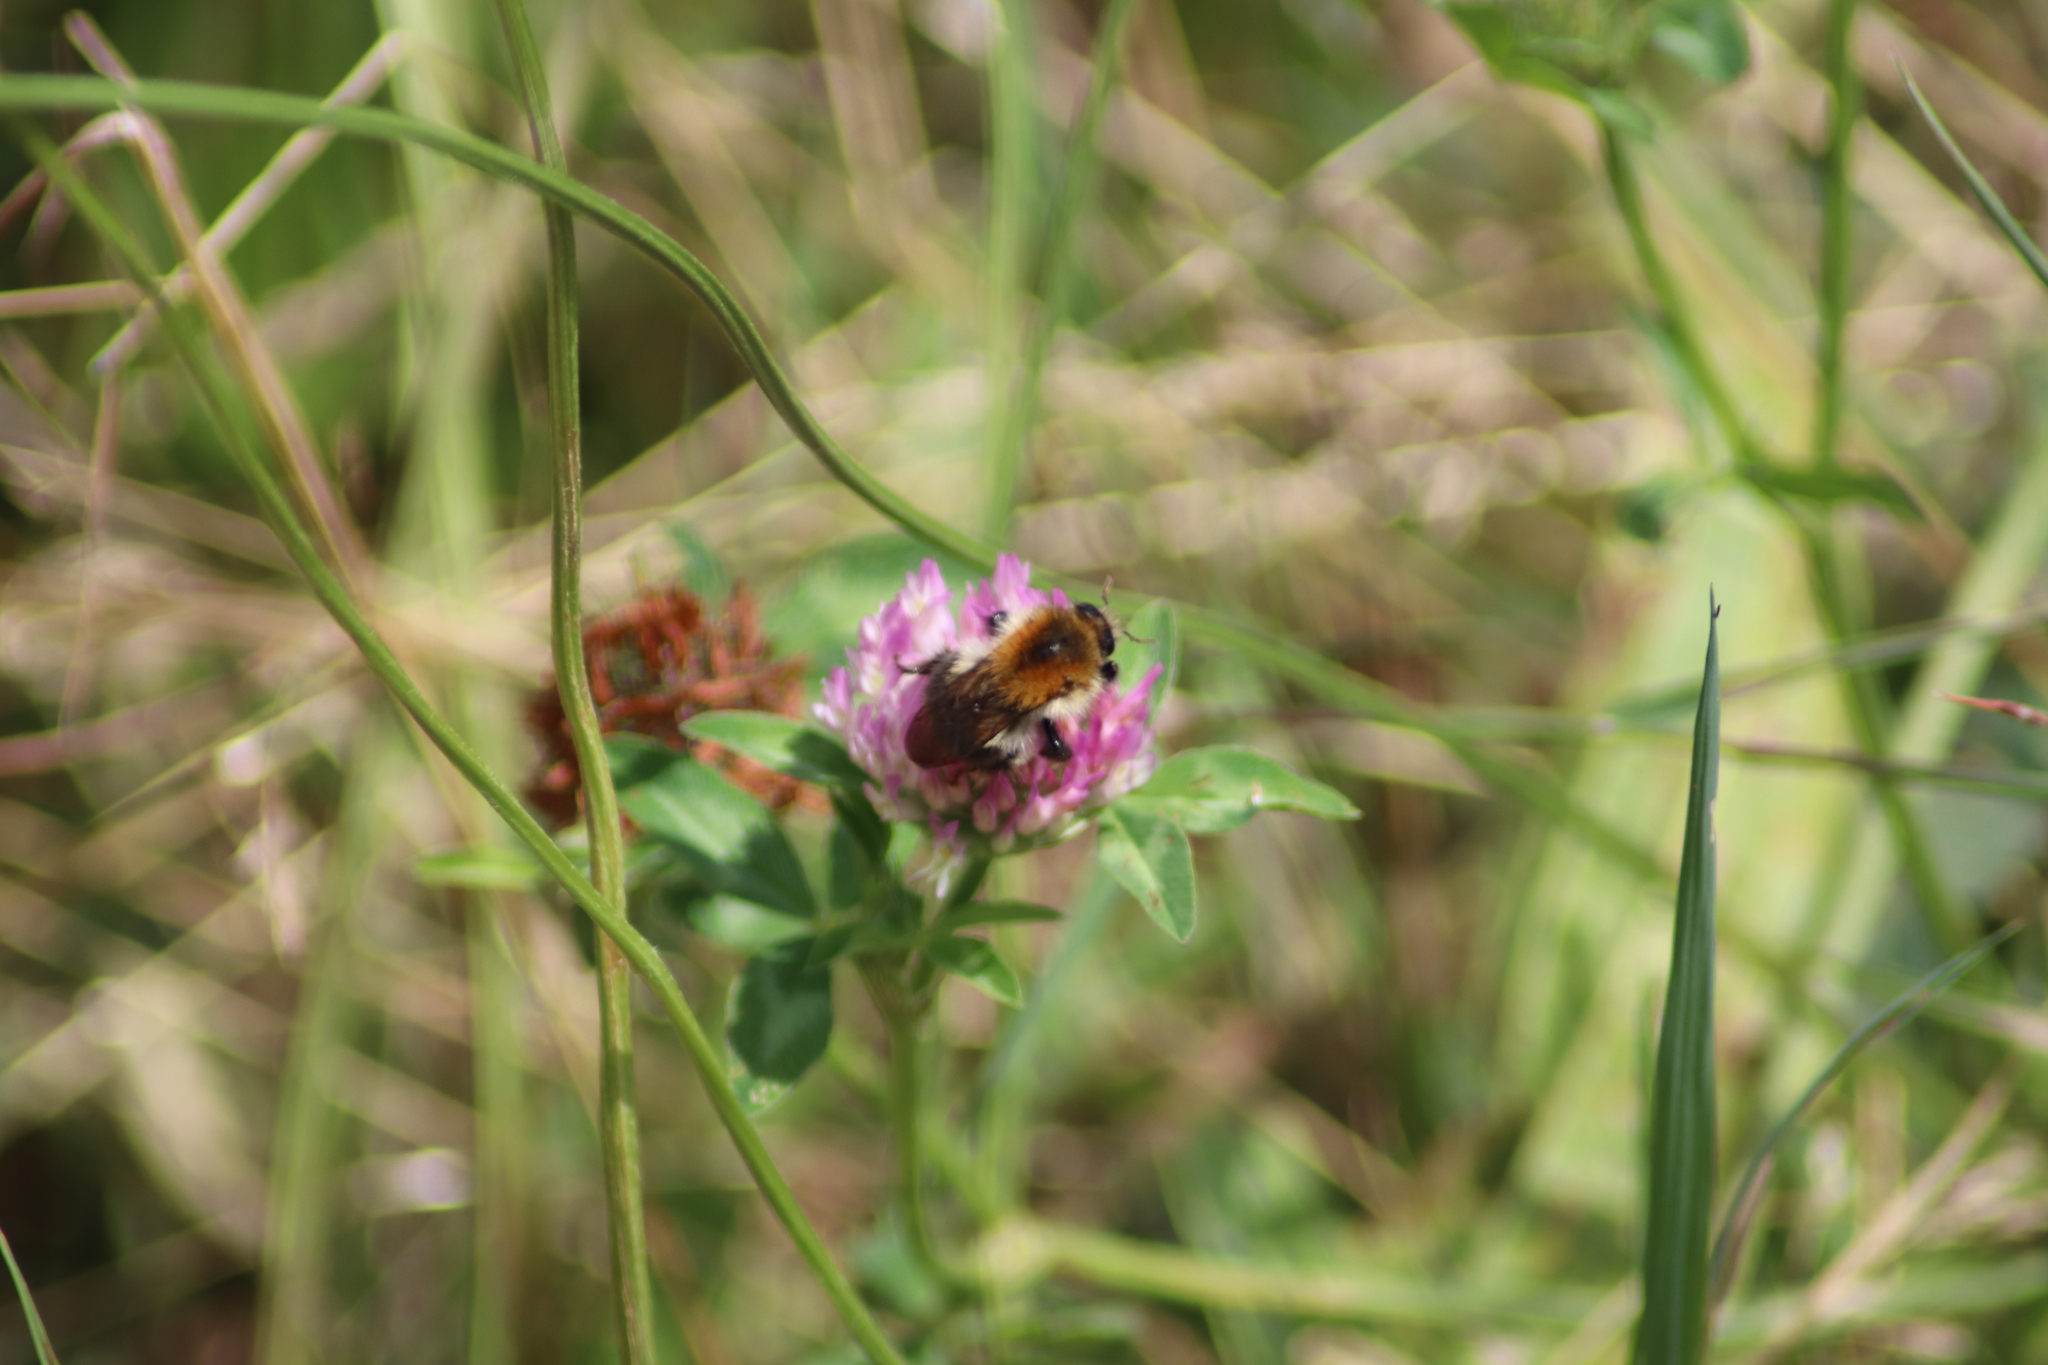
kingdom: Animalia
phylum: Arthropoda
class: Insecta
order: Hymenoptera
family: Apidae
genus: Bombus
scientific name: Bombus pascuorum
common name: Common carder bee
